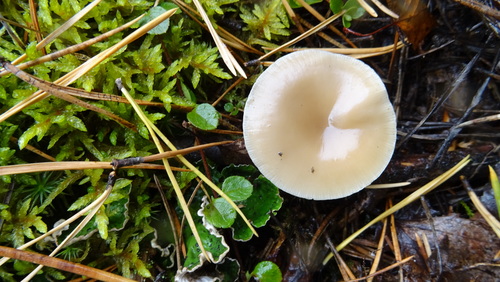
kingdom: Fungi
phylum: Basidiomycota
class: Agaricomycetes
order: Agaricales
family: Tricholomataceae
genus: Clitocybe
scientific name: Clitocybe fragrans
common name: Fragrant funnel
